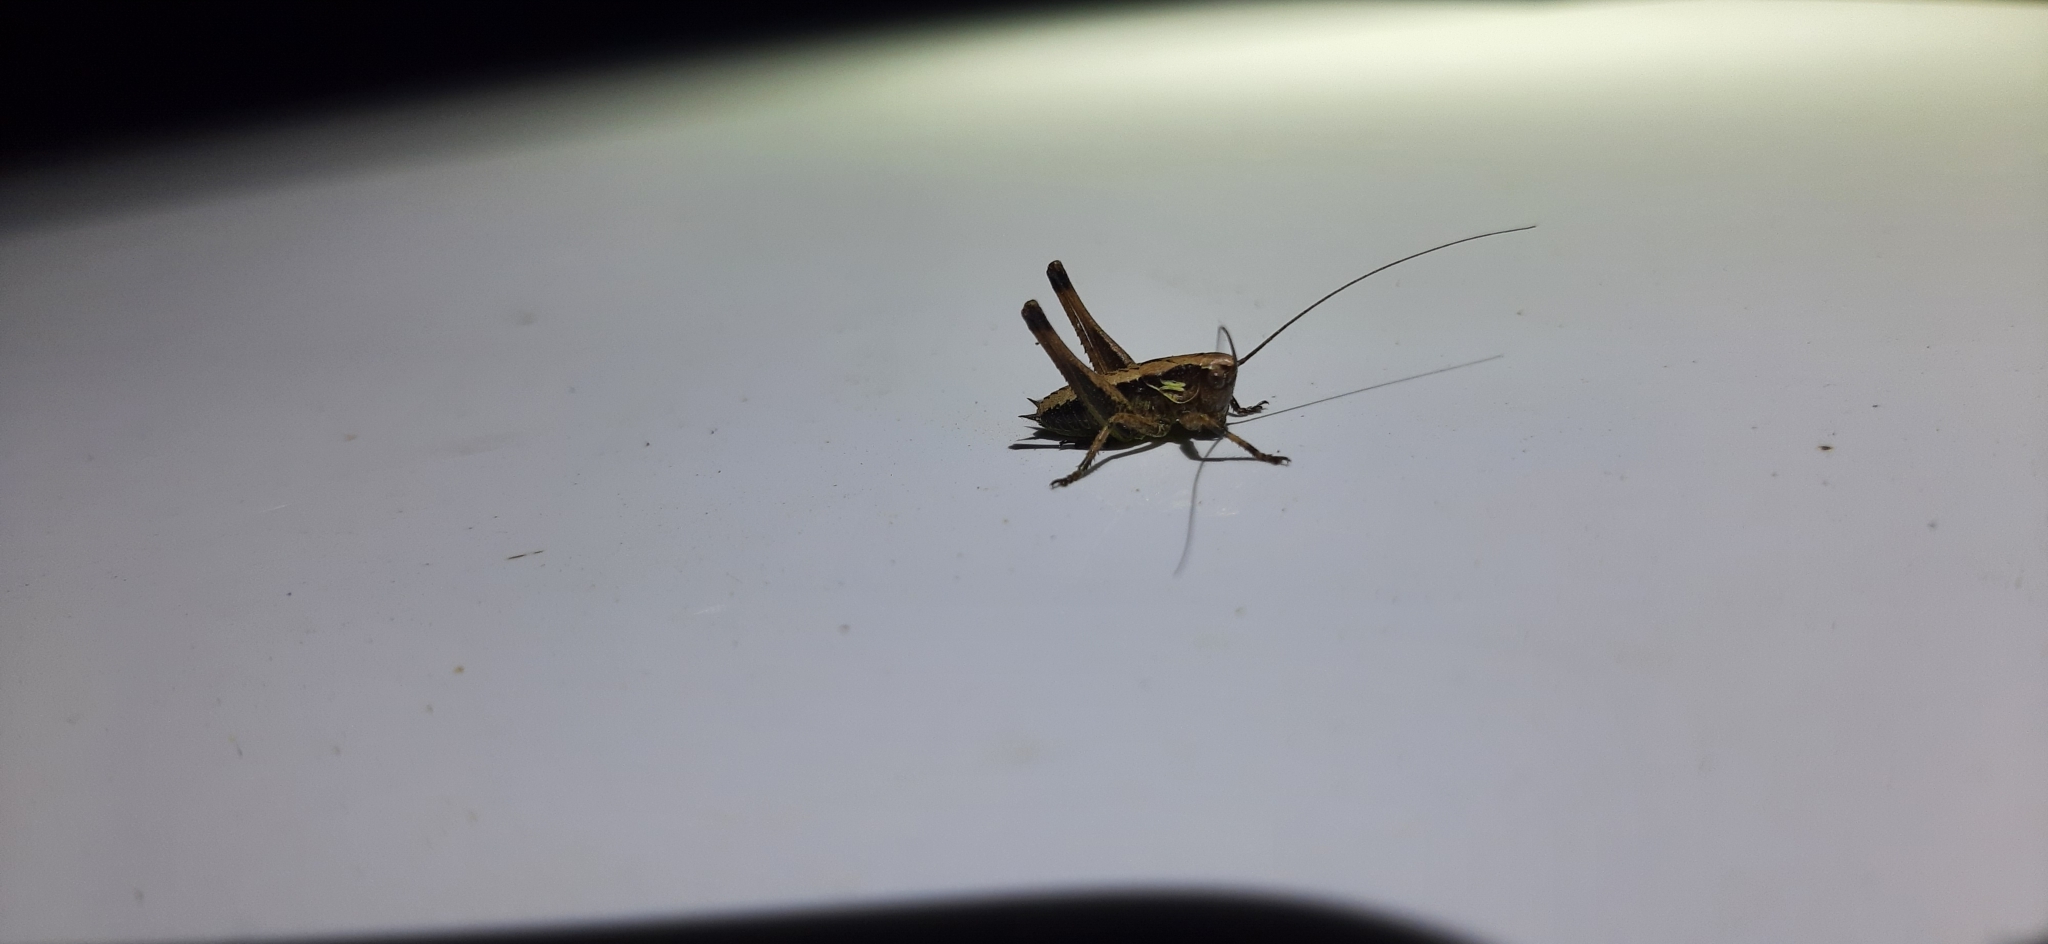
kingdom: Animalia
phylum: Arthropoda
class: Insecta
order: Orthoptera
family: Tettigoniidae
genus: Pholidoptera
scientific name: Pholidoptera griseoaptera
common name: Dark bush-cricket
